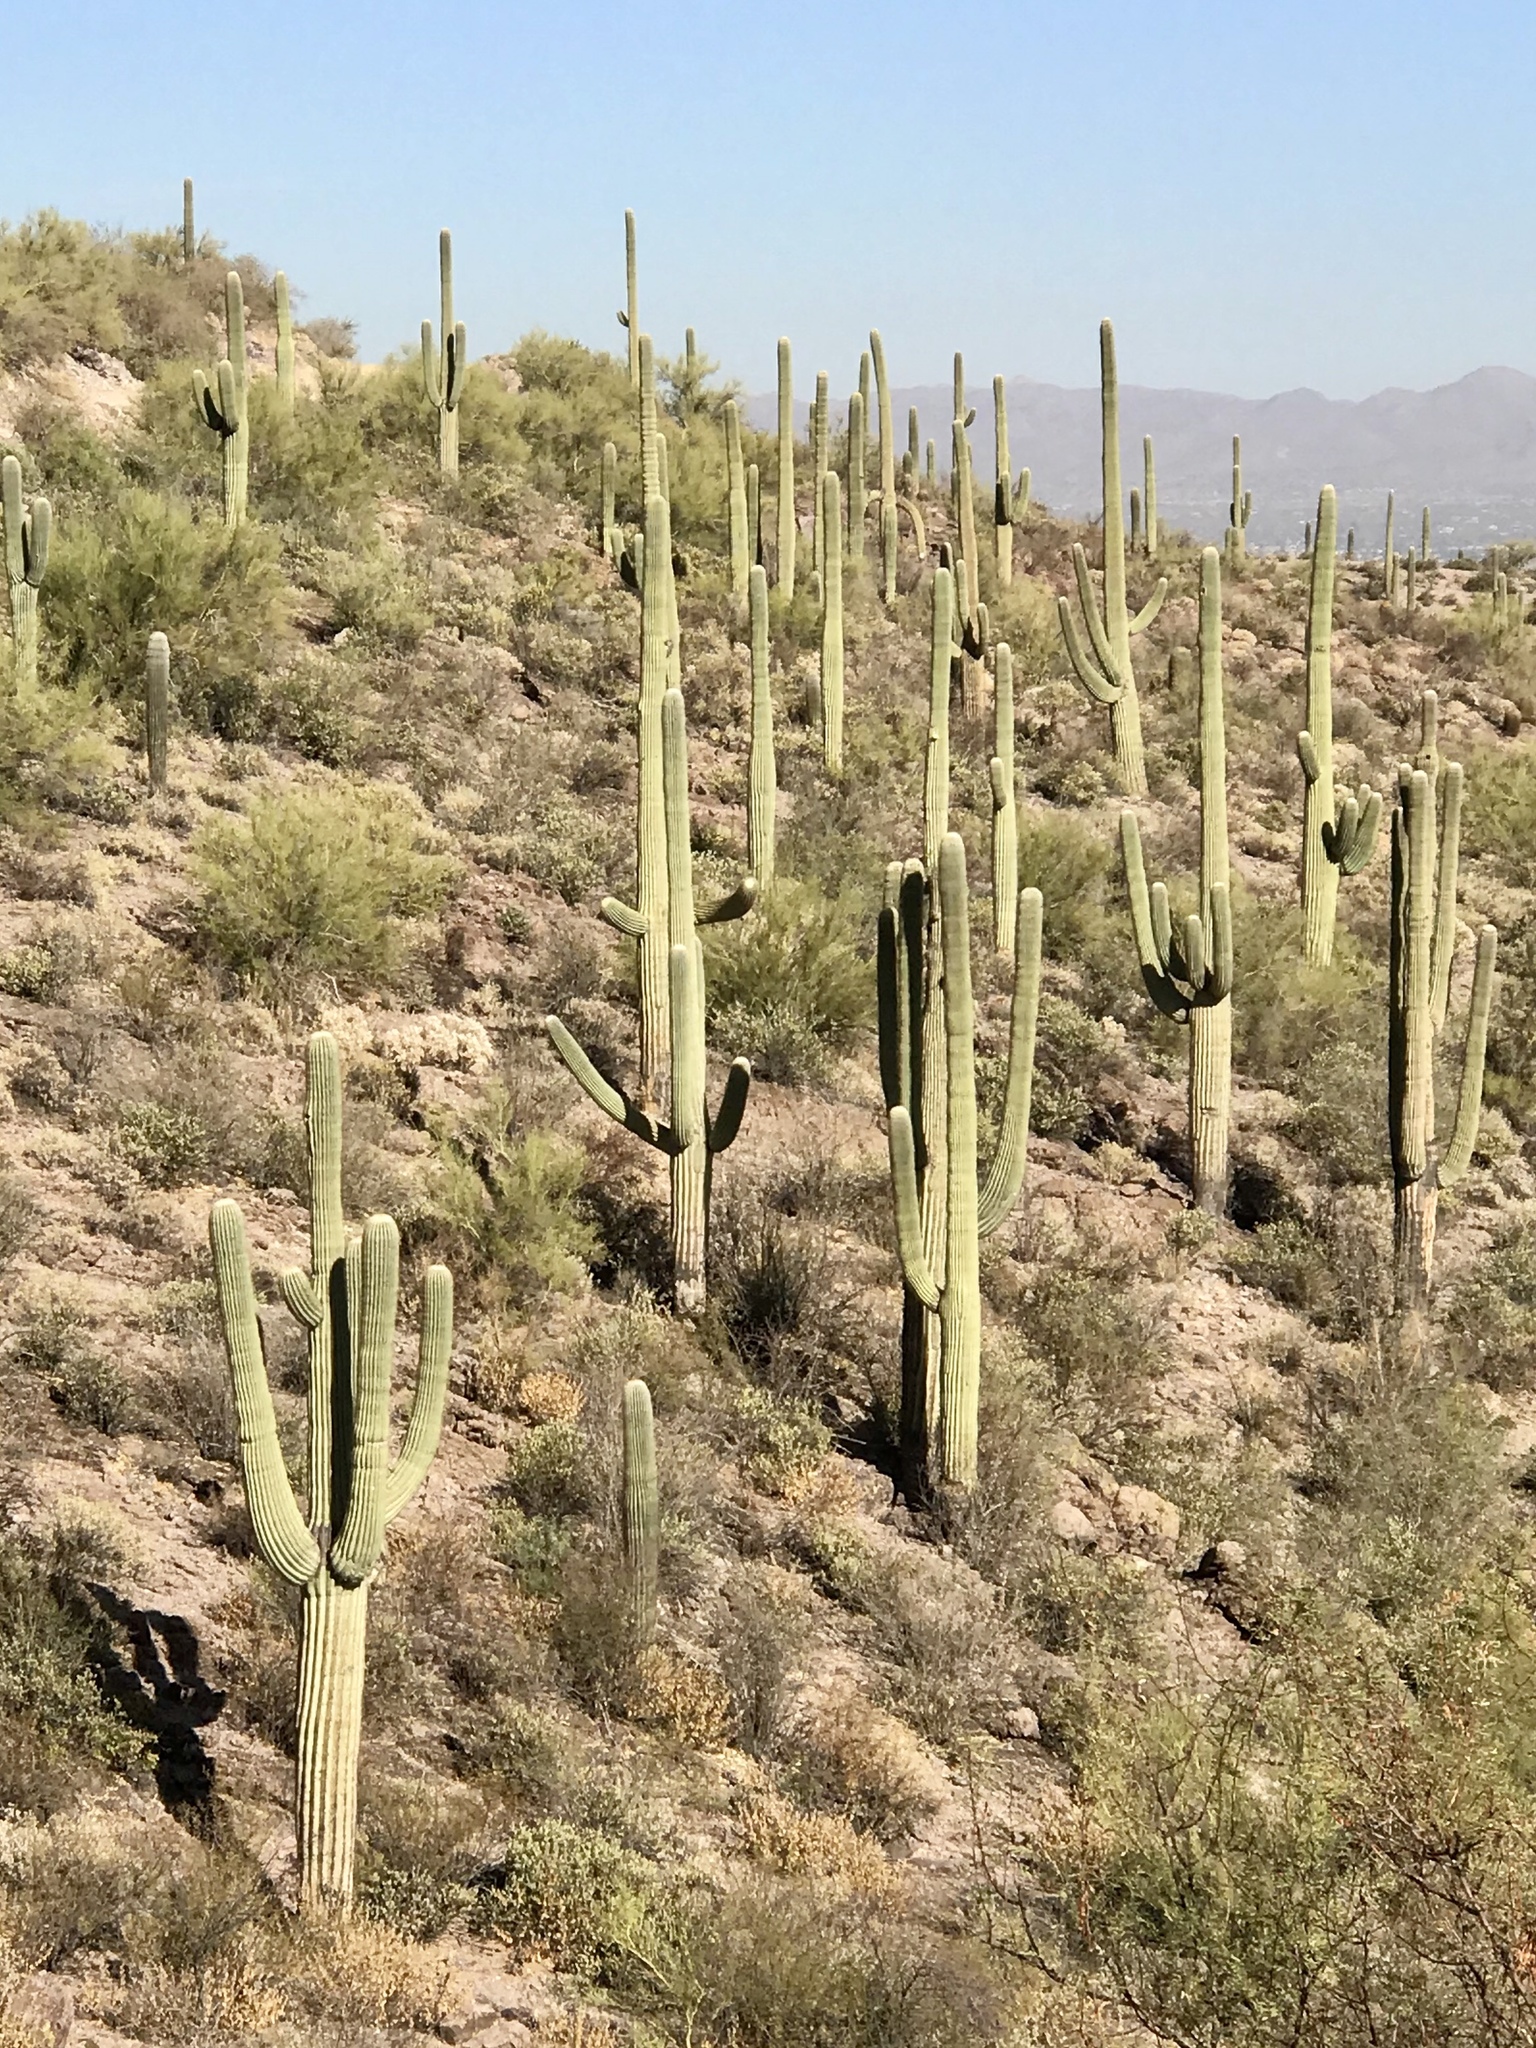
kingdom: Plantae
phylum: Tracheophyta
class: Magnoliopsida
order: Caryophyllales
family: Cactaceae
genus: Carnegiea
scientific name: Carnegiea gigantea
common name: Saguaro
